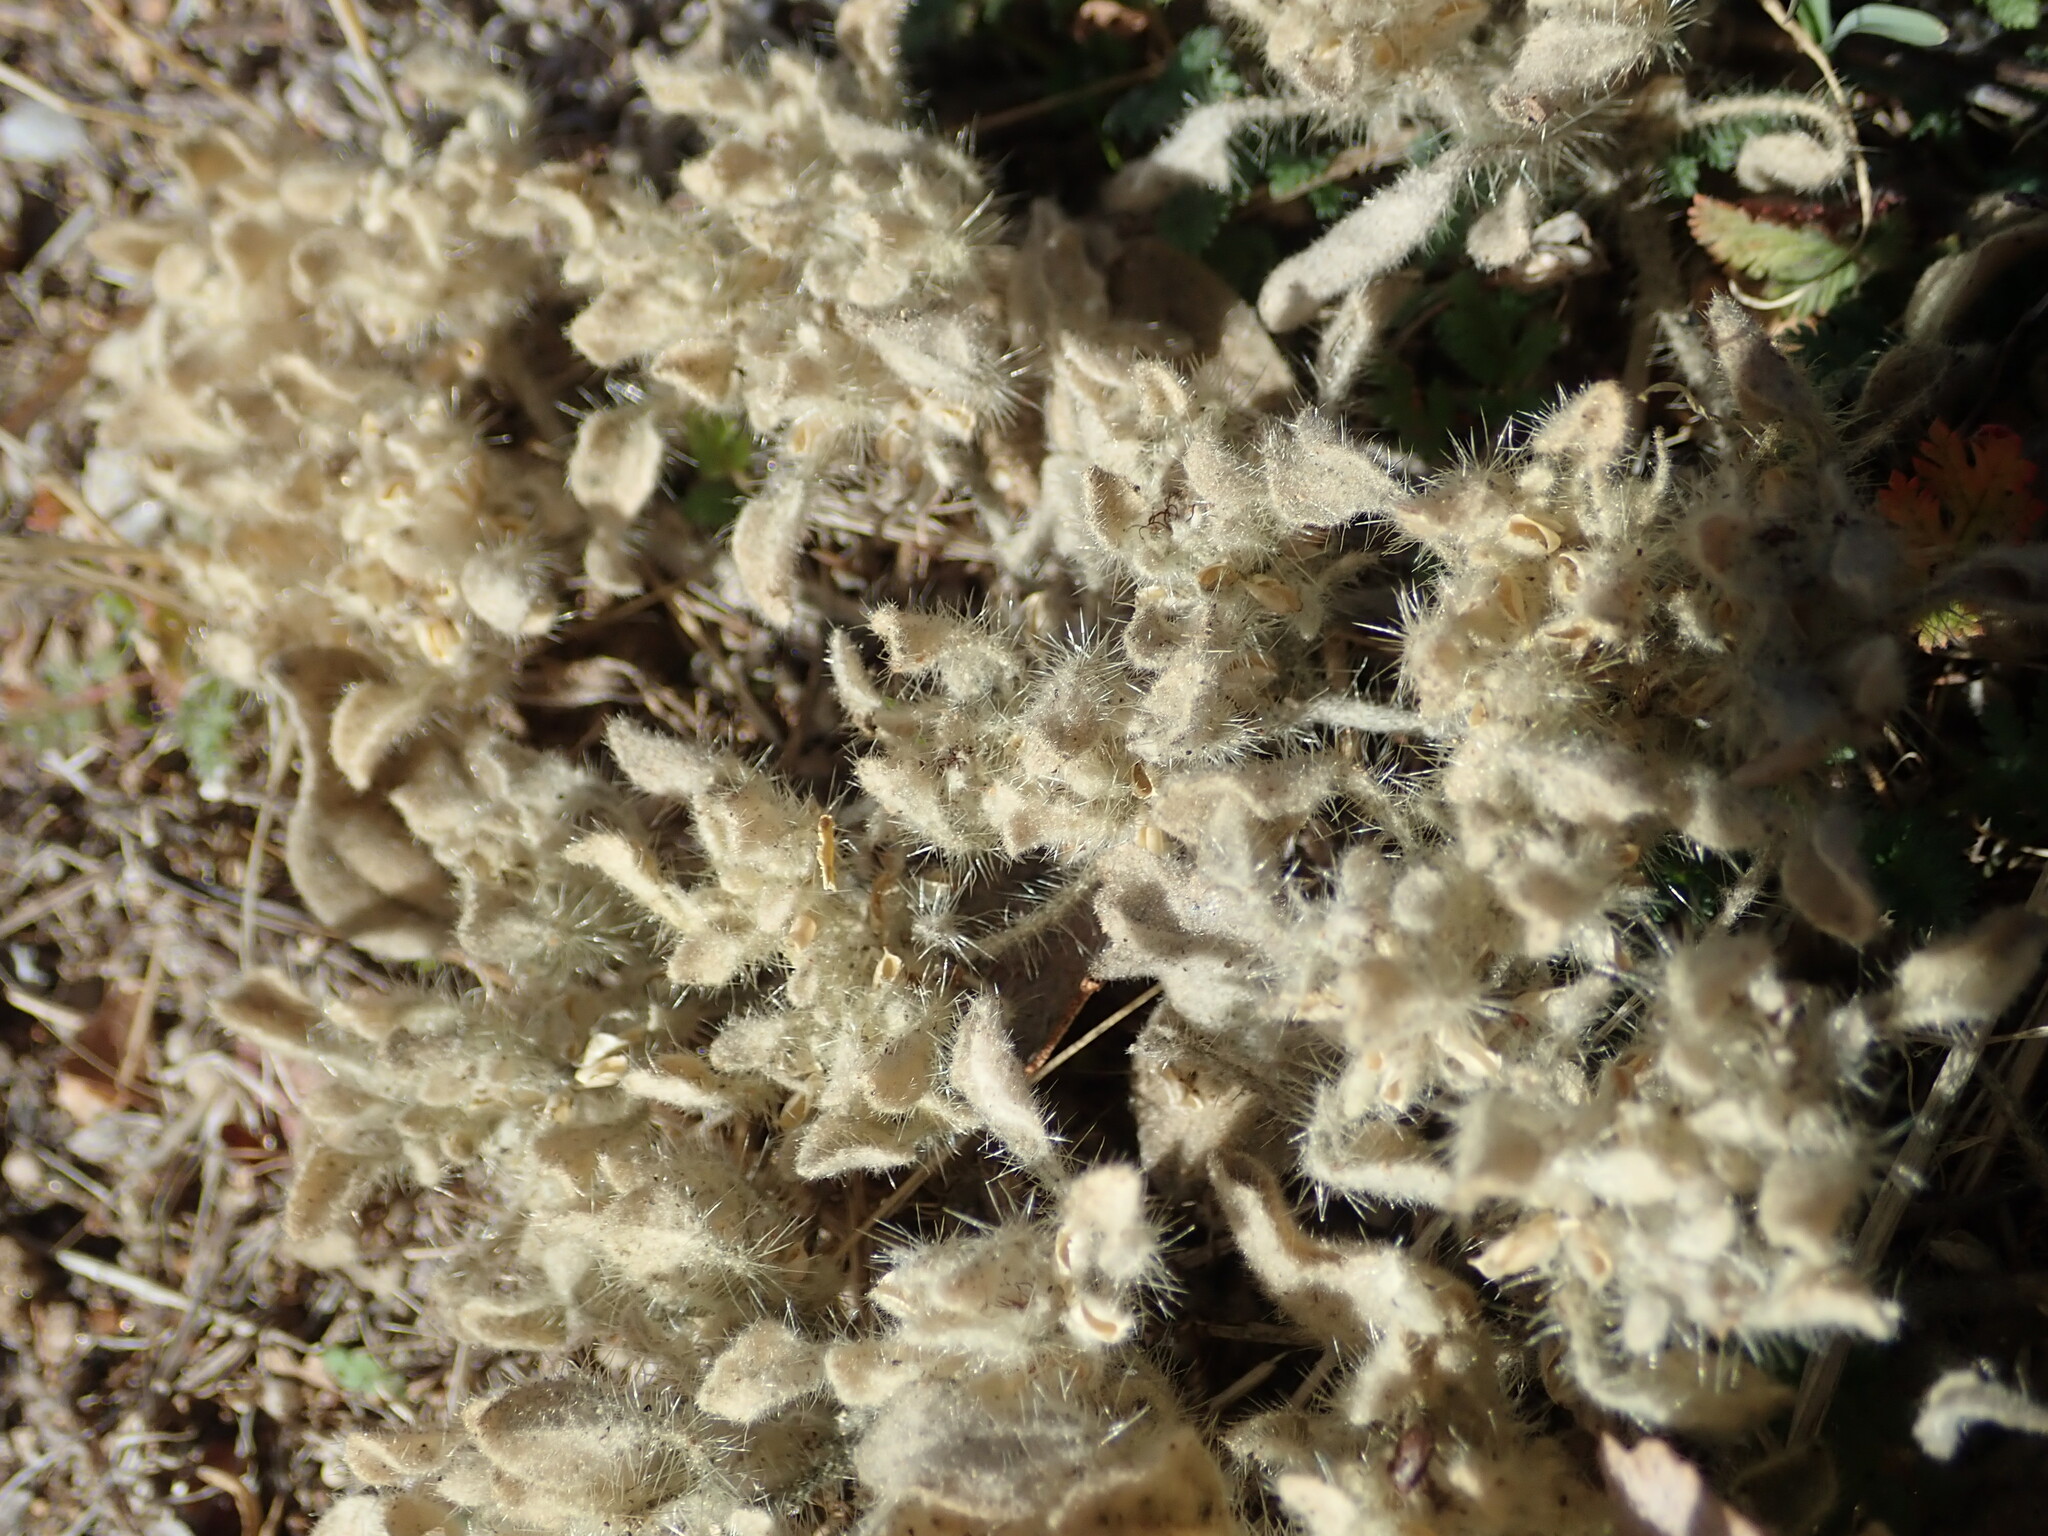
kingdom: Plantae
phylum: Tracheophyta
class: Magnoliopsida
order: Malpighiales
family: Euphorbiaceae
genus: Croton
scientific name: Croton setiger
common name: Dove weed
